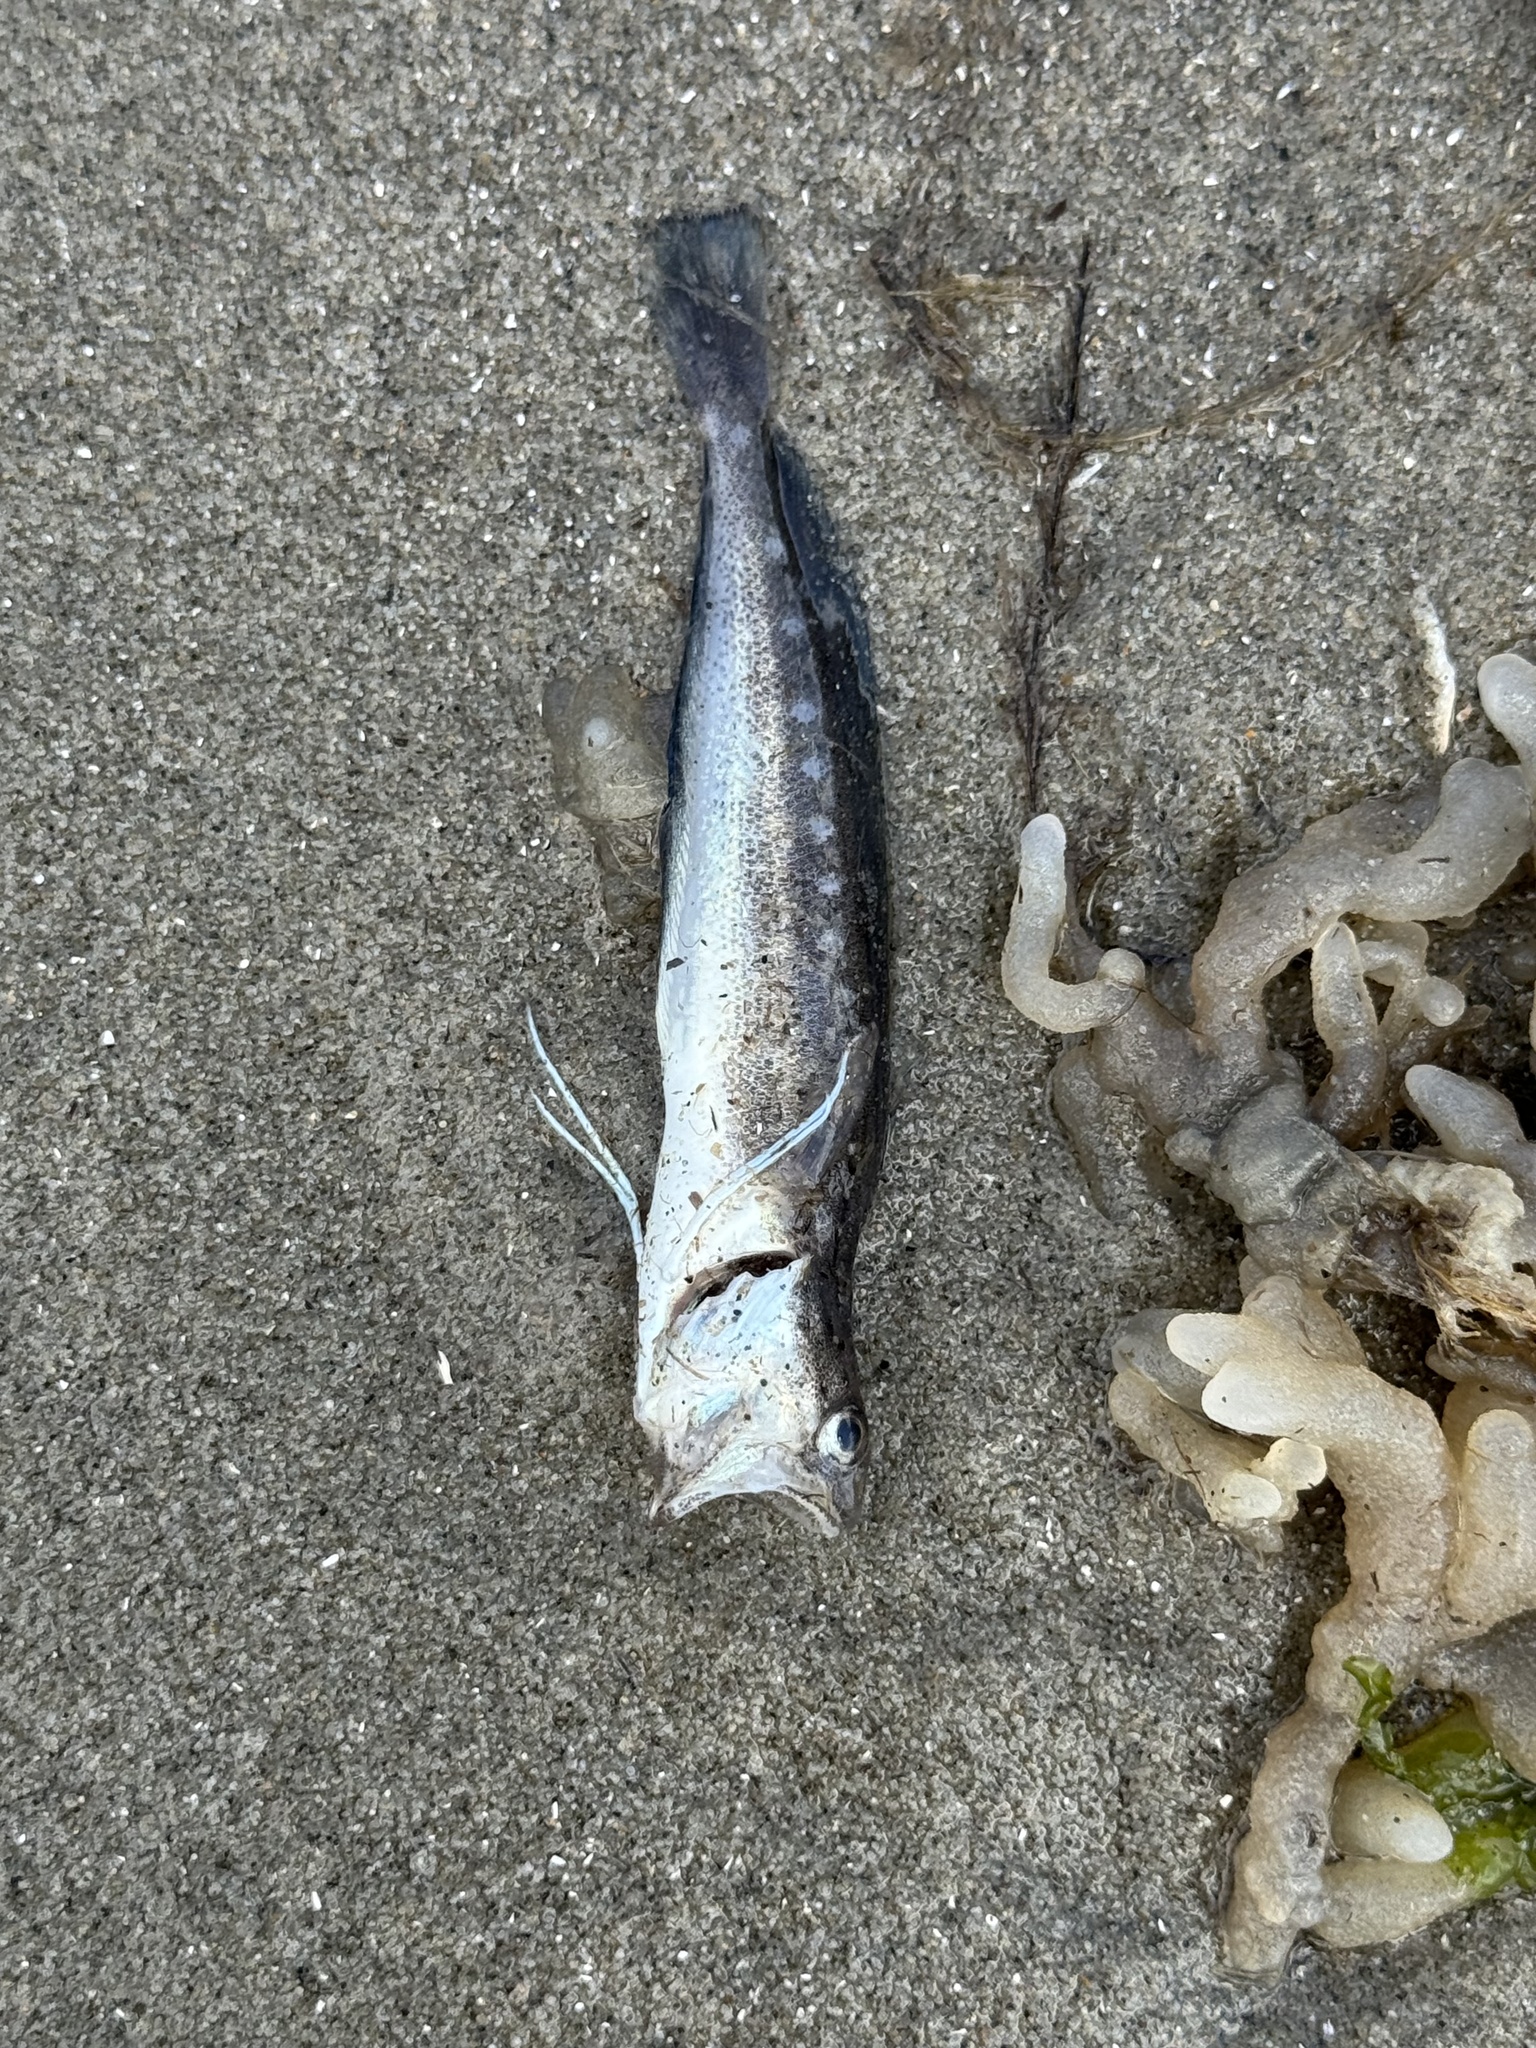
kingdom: Animalia
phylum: Chordata
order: Gadiformes
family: Phycidae
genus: Urophycis
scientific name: Urophycis regia
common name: Spotted codling
